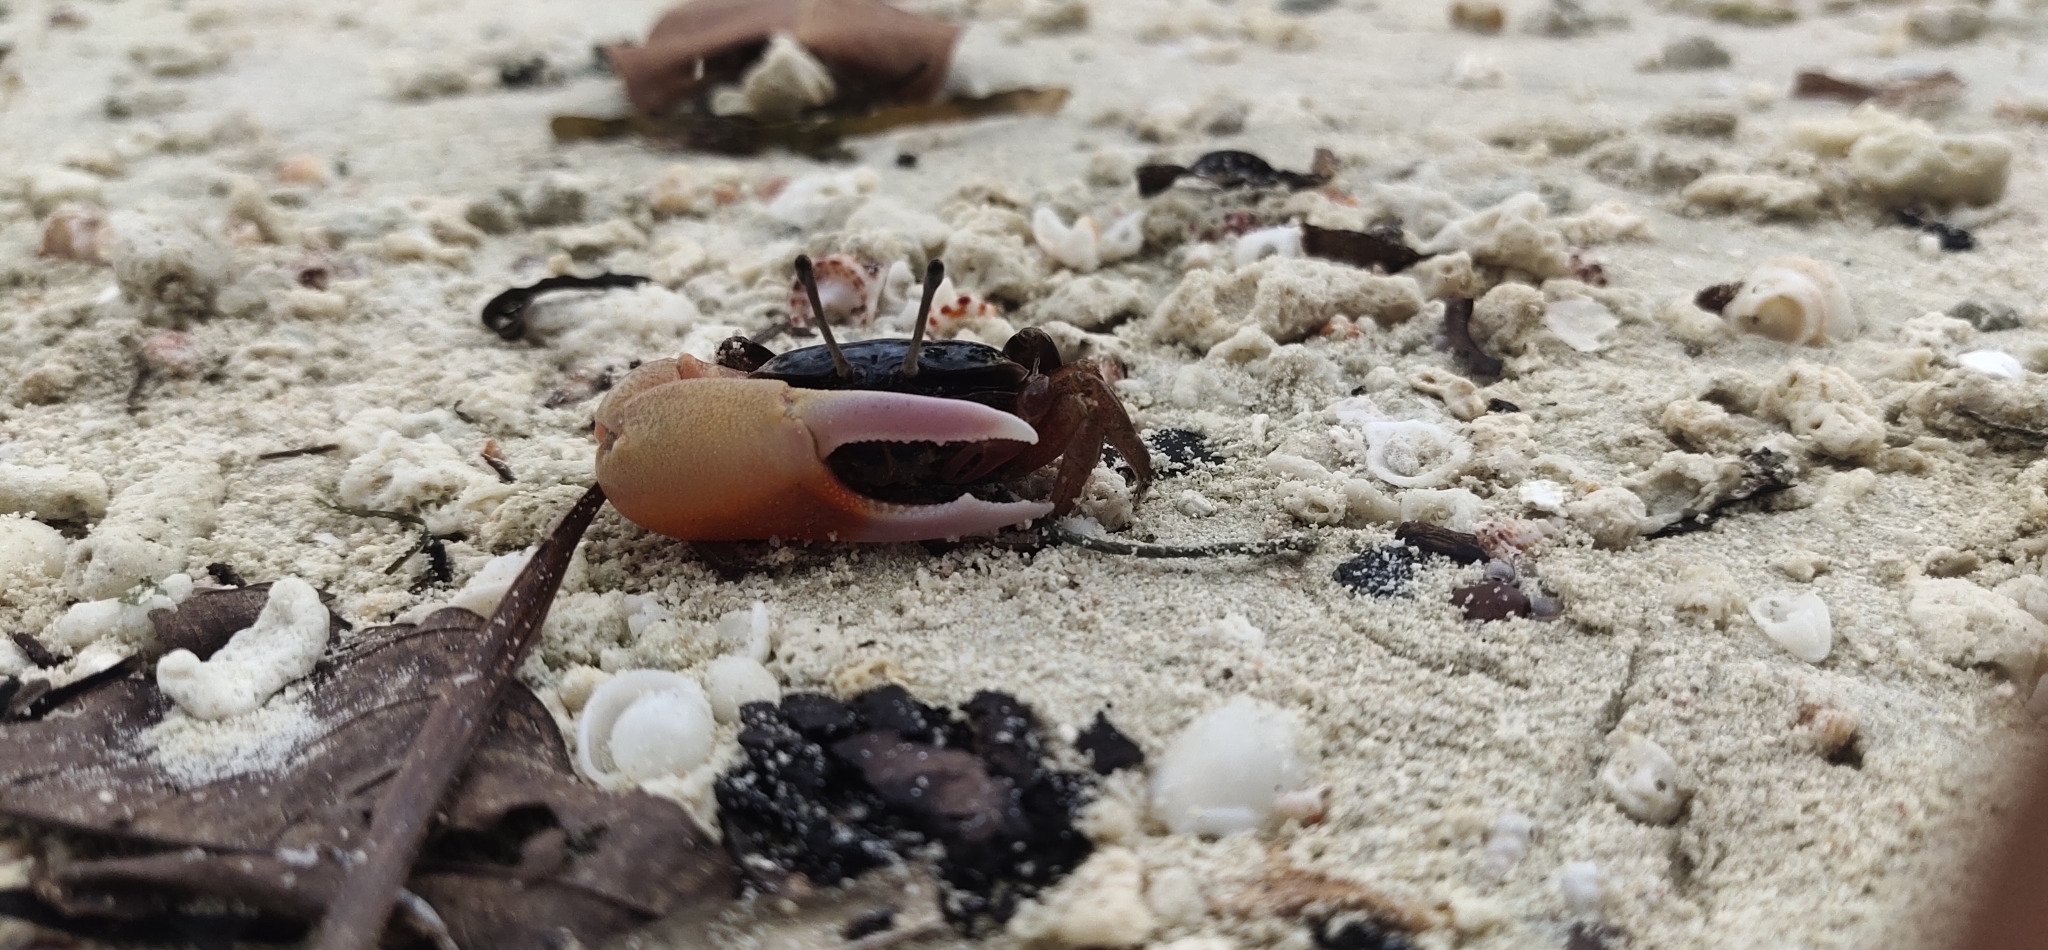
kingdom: Animalia
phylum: Arthropoda
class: Malacostraca
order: Decapoda
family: Ocypodidae
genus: Gelasimus
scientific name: Gelasimus tetragonon
